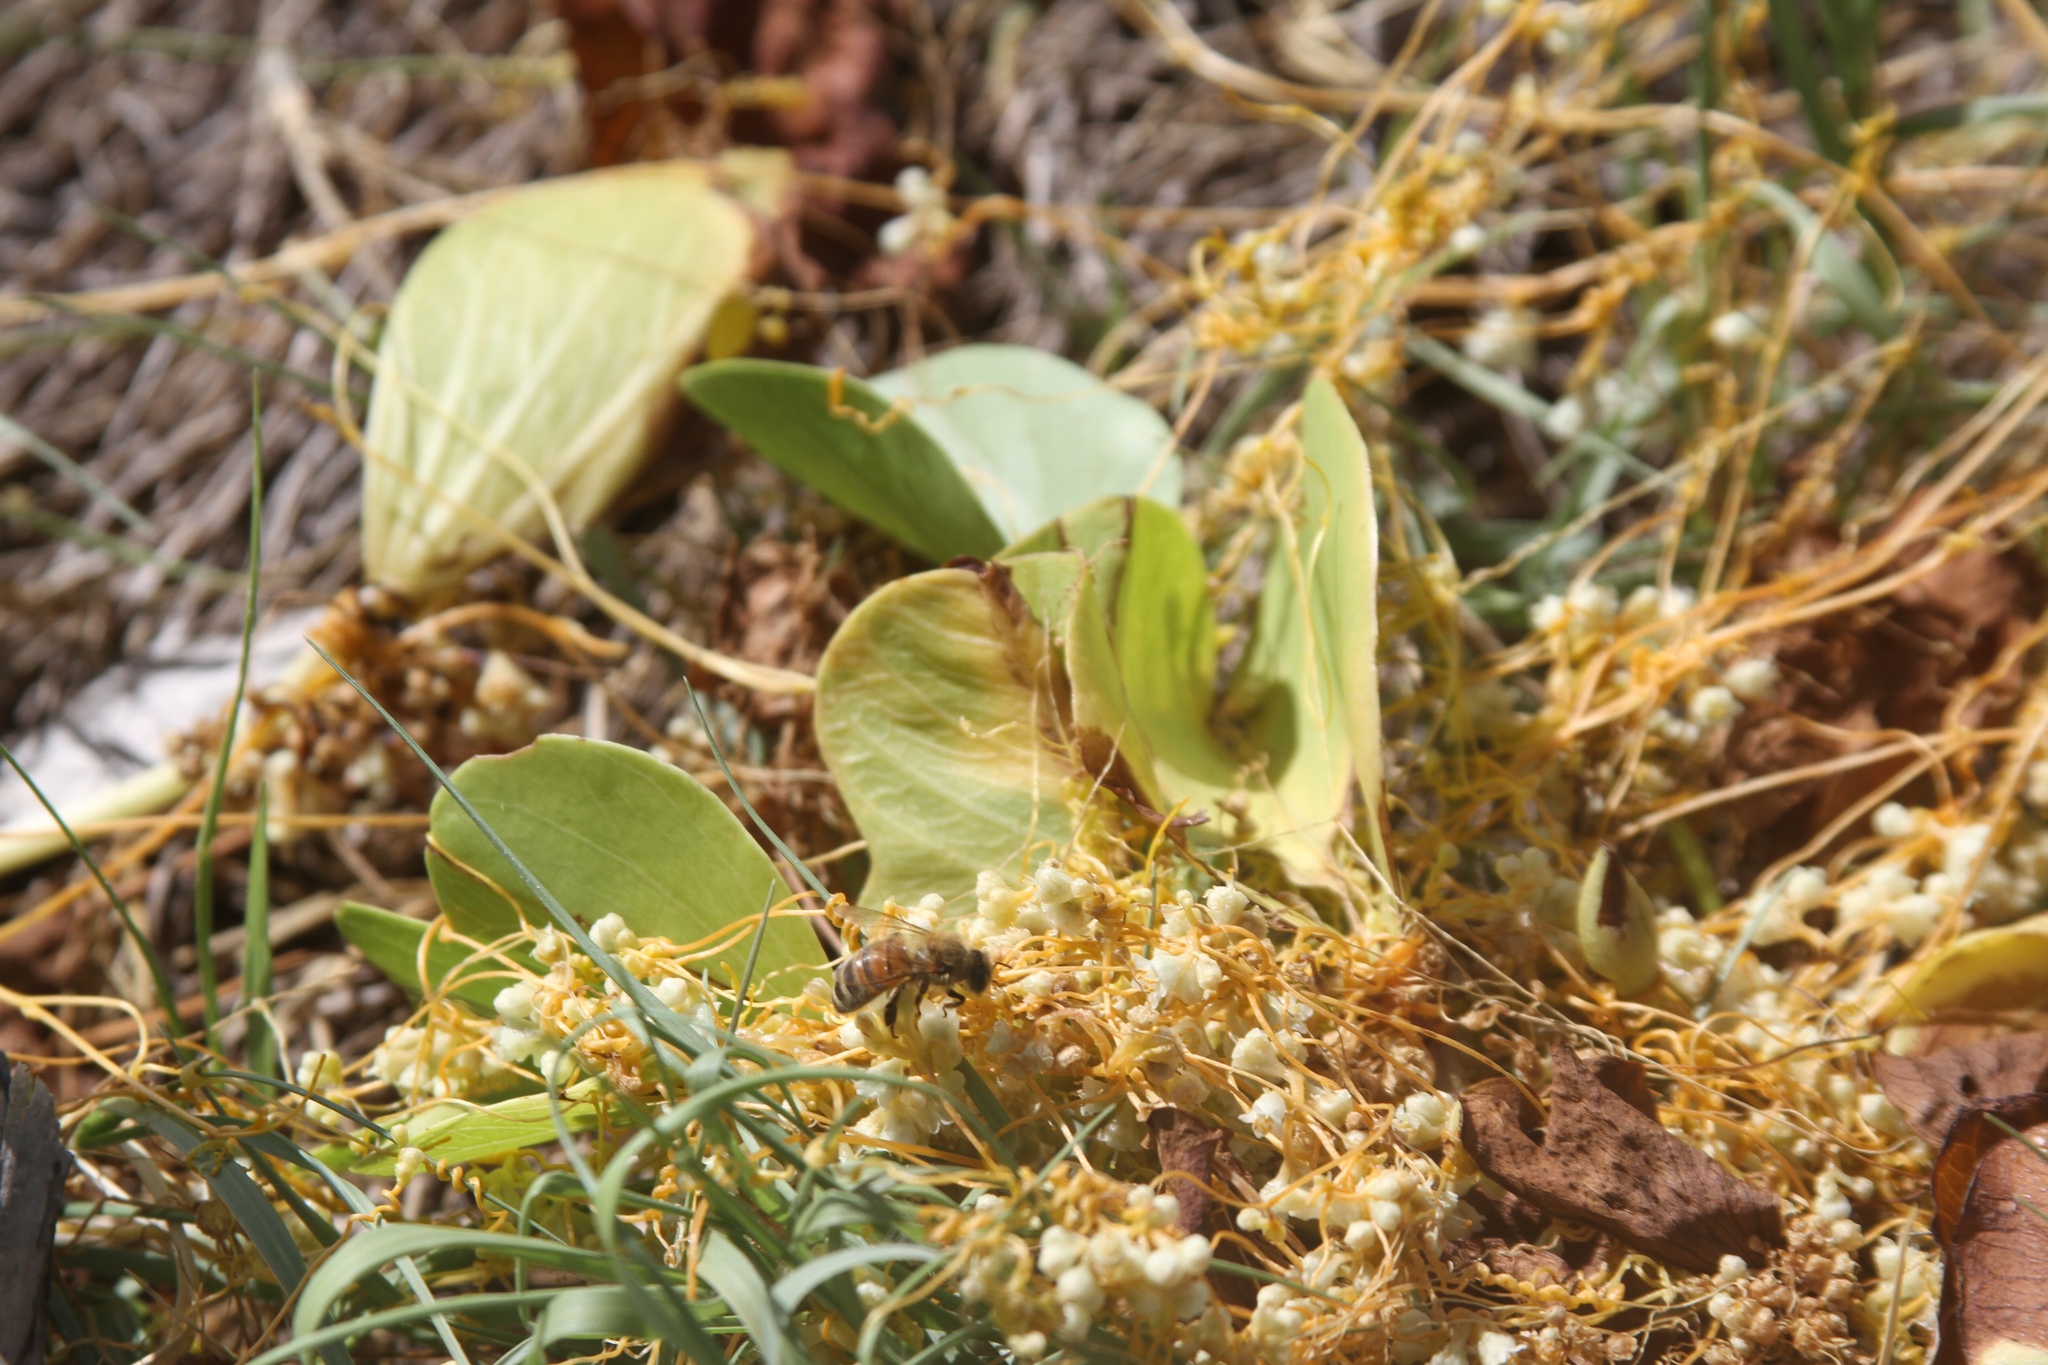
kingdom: Animalia
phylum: Arthropoda
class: Insecta
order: Hymenoptera
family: Apidae
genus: Apis
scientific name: Apis mellifera
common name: Honey bee
